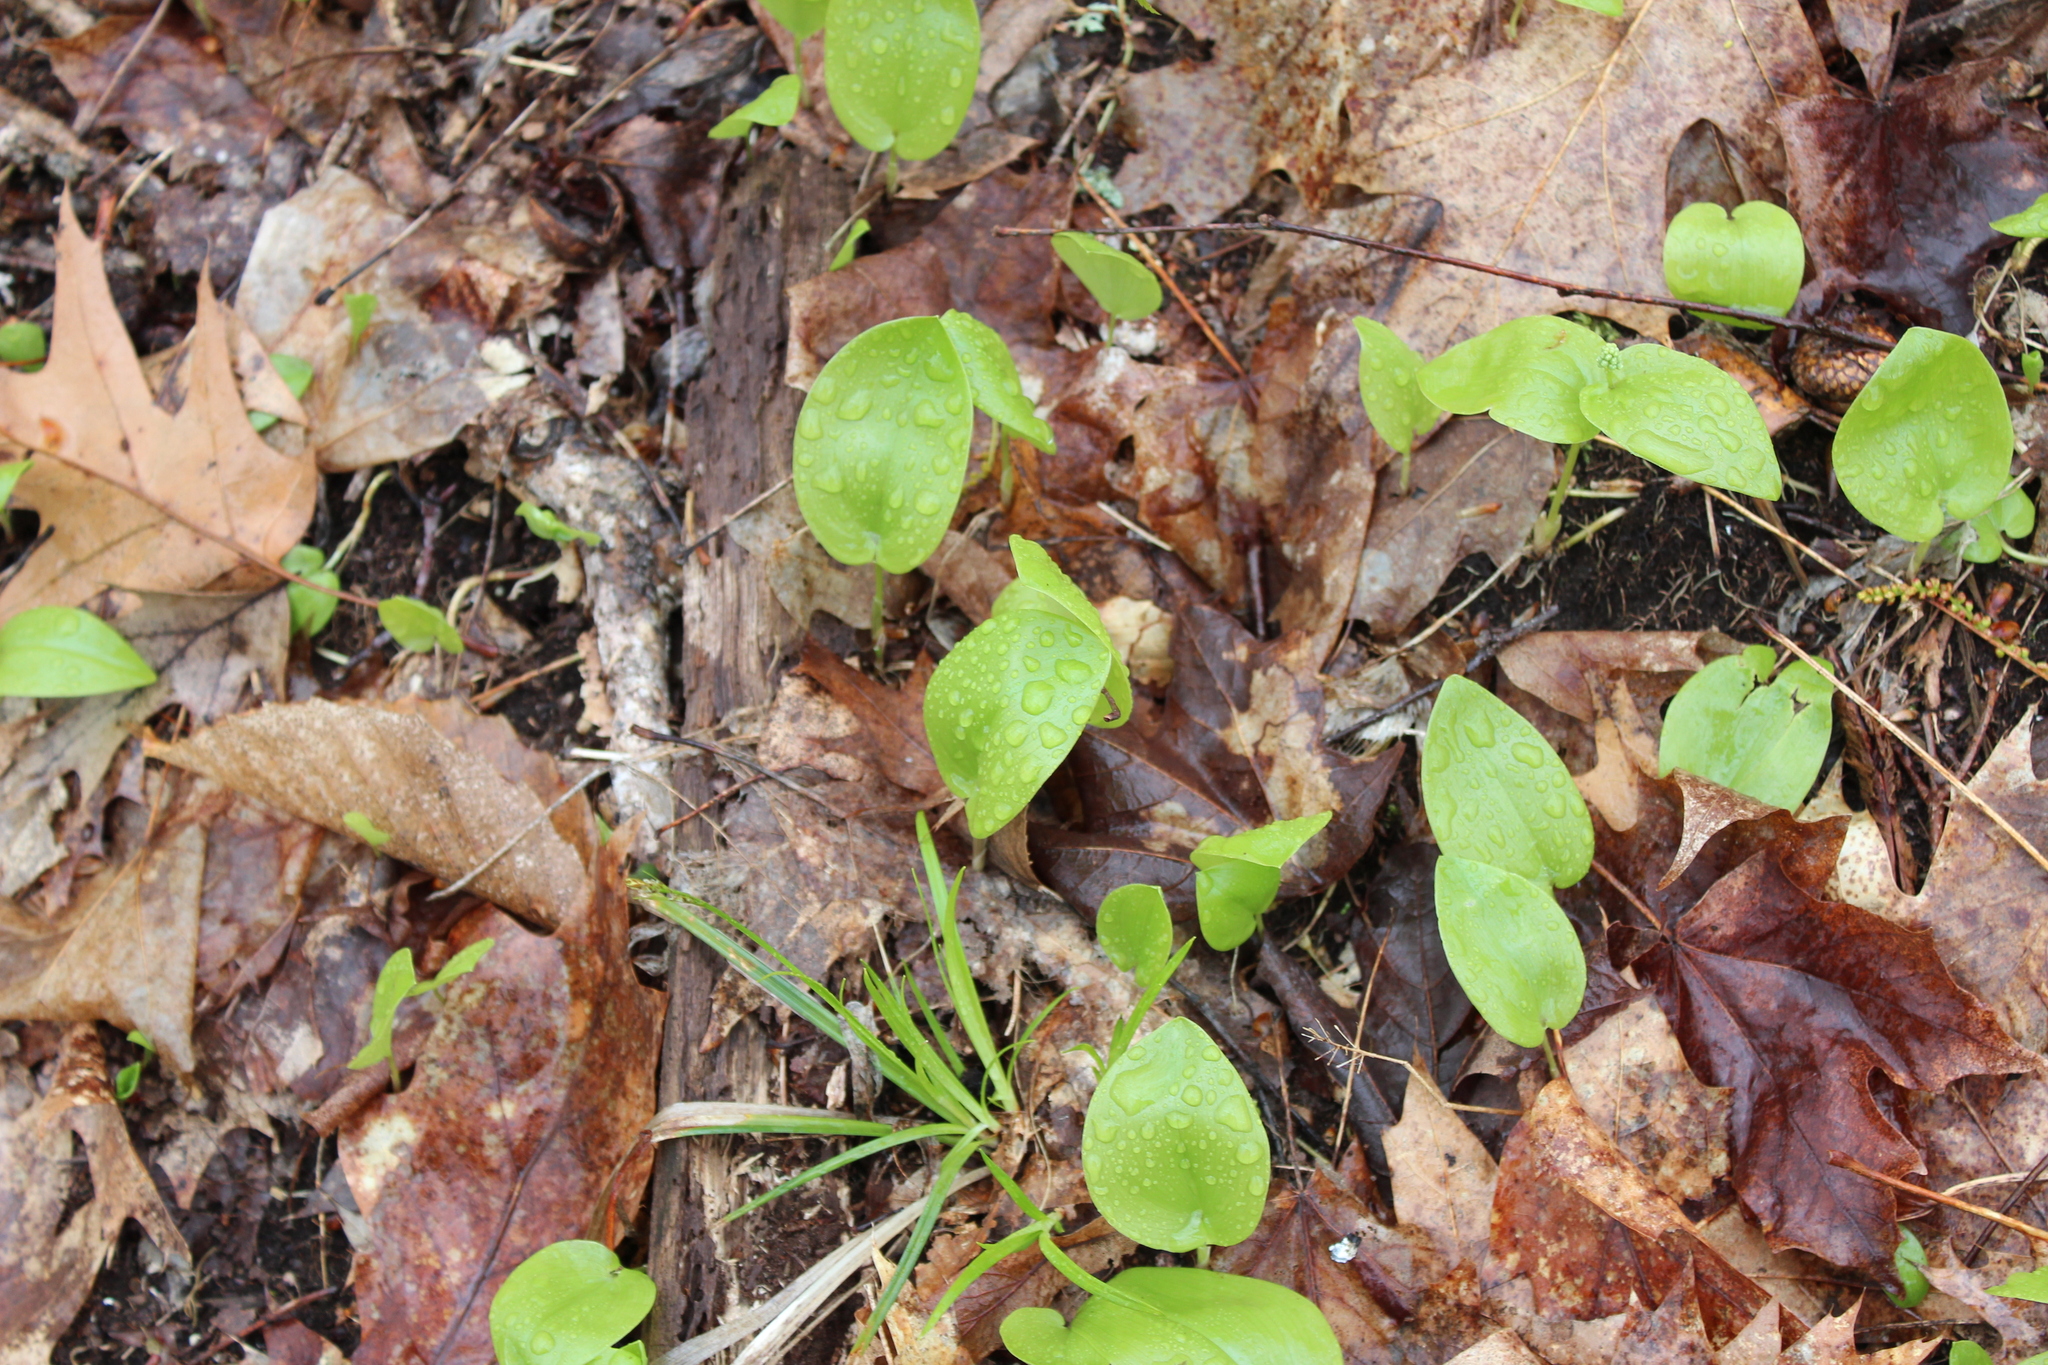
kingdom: Plantae
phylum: Tracheophyta
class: Liliopsida
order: Asparagales
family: Asparagaceae
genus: Maianthemum
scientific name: Maianthemum canadense
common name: False lily-of-the-valley
